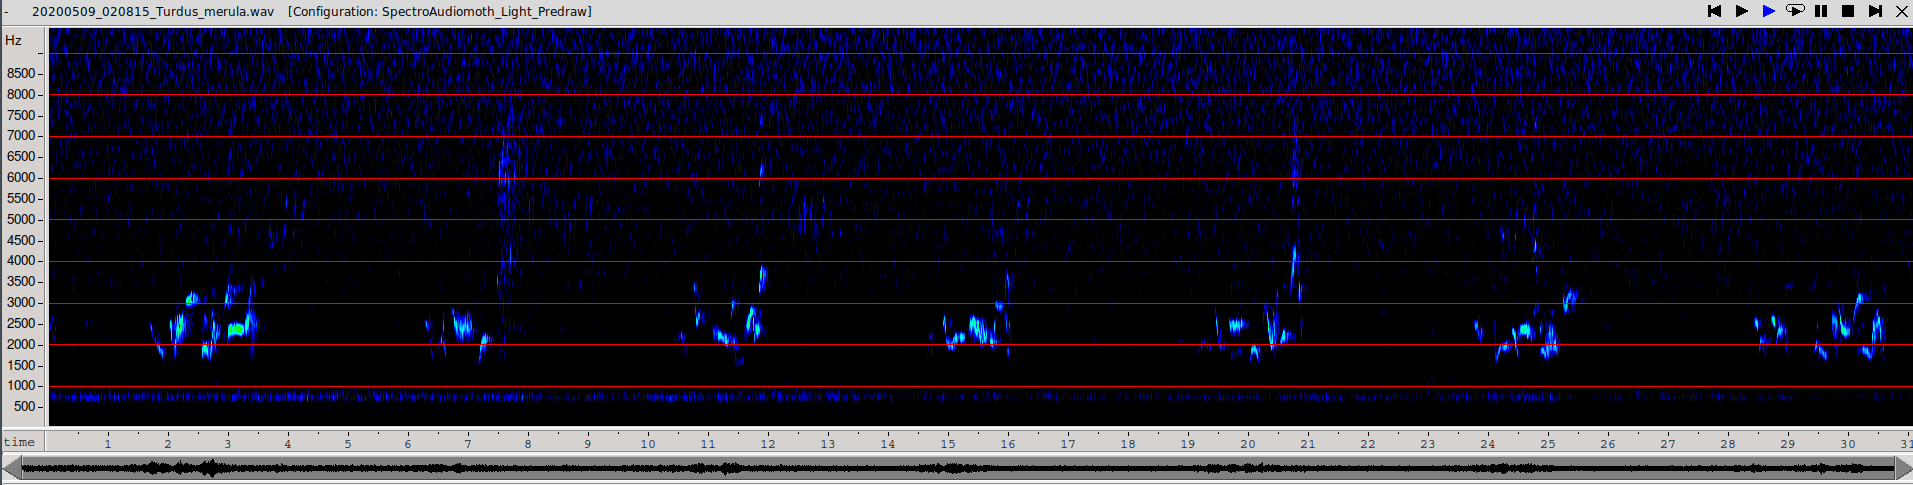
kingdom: Animalia
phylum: Chordata
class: Aves
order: Passeriformes
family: Turdidae
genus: Turdus
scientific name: Turdus merula
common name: Common blackbird
